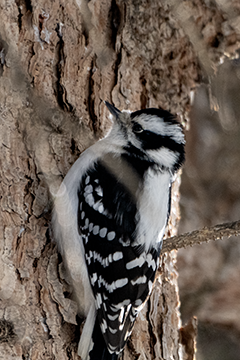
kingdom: Animalia
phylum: Chordata
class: Aves
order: Piciformes
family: Picidae
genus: Dryobates
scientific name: Dryobates pubescens
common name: Downy woodpecker
